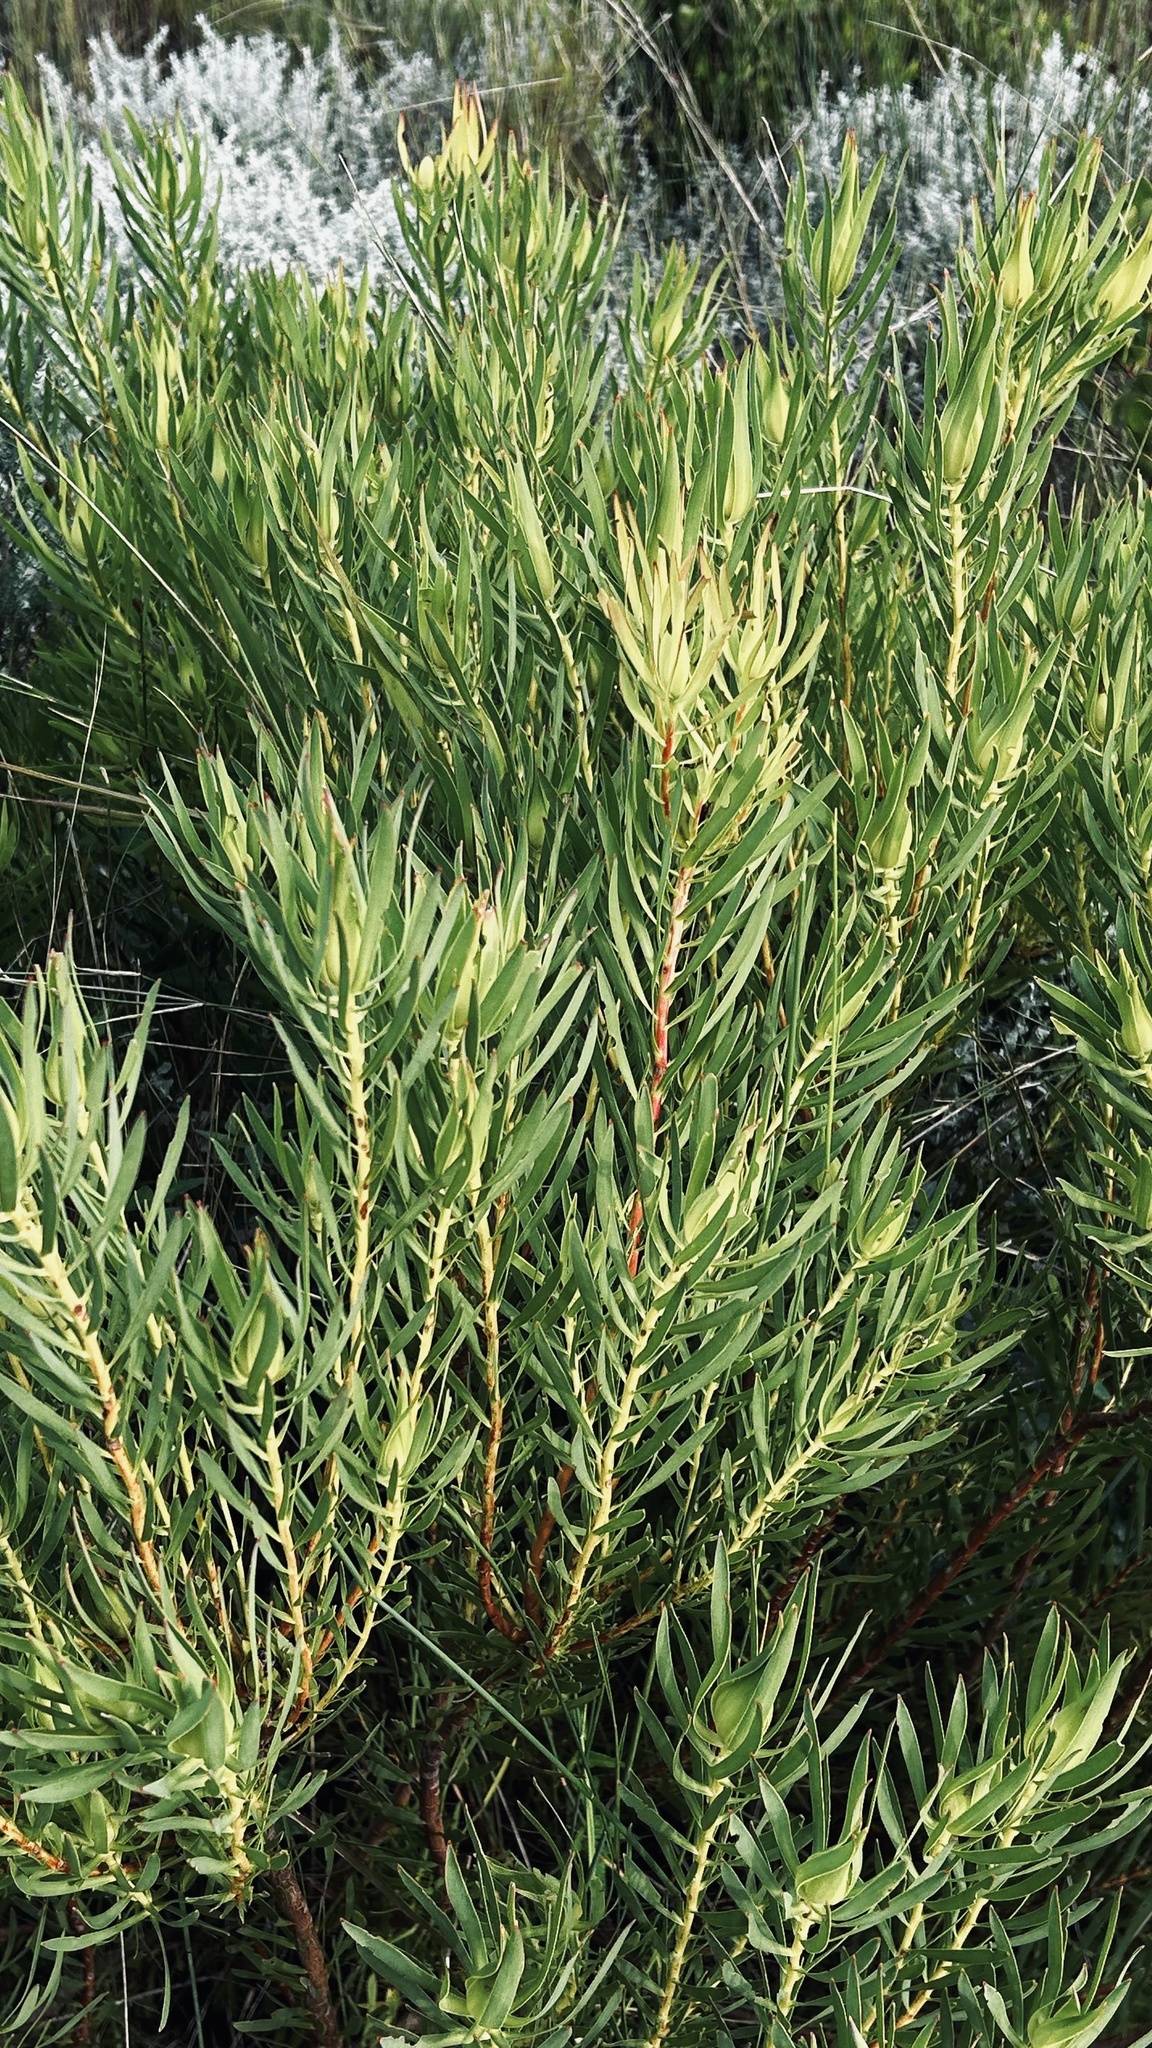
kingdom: Plantae
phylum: Tracheophyta
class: Magnoliopsida
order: Proteales
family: Proteaceae
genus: Leucadendron
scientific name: Leucadendron salignum
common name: Common sunshine conebush
